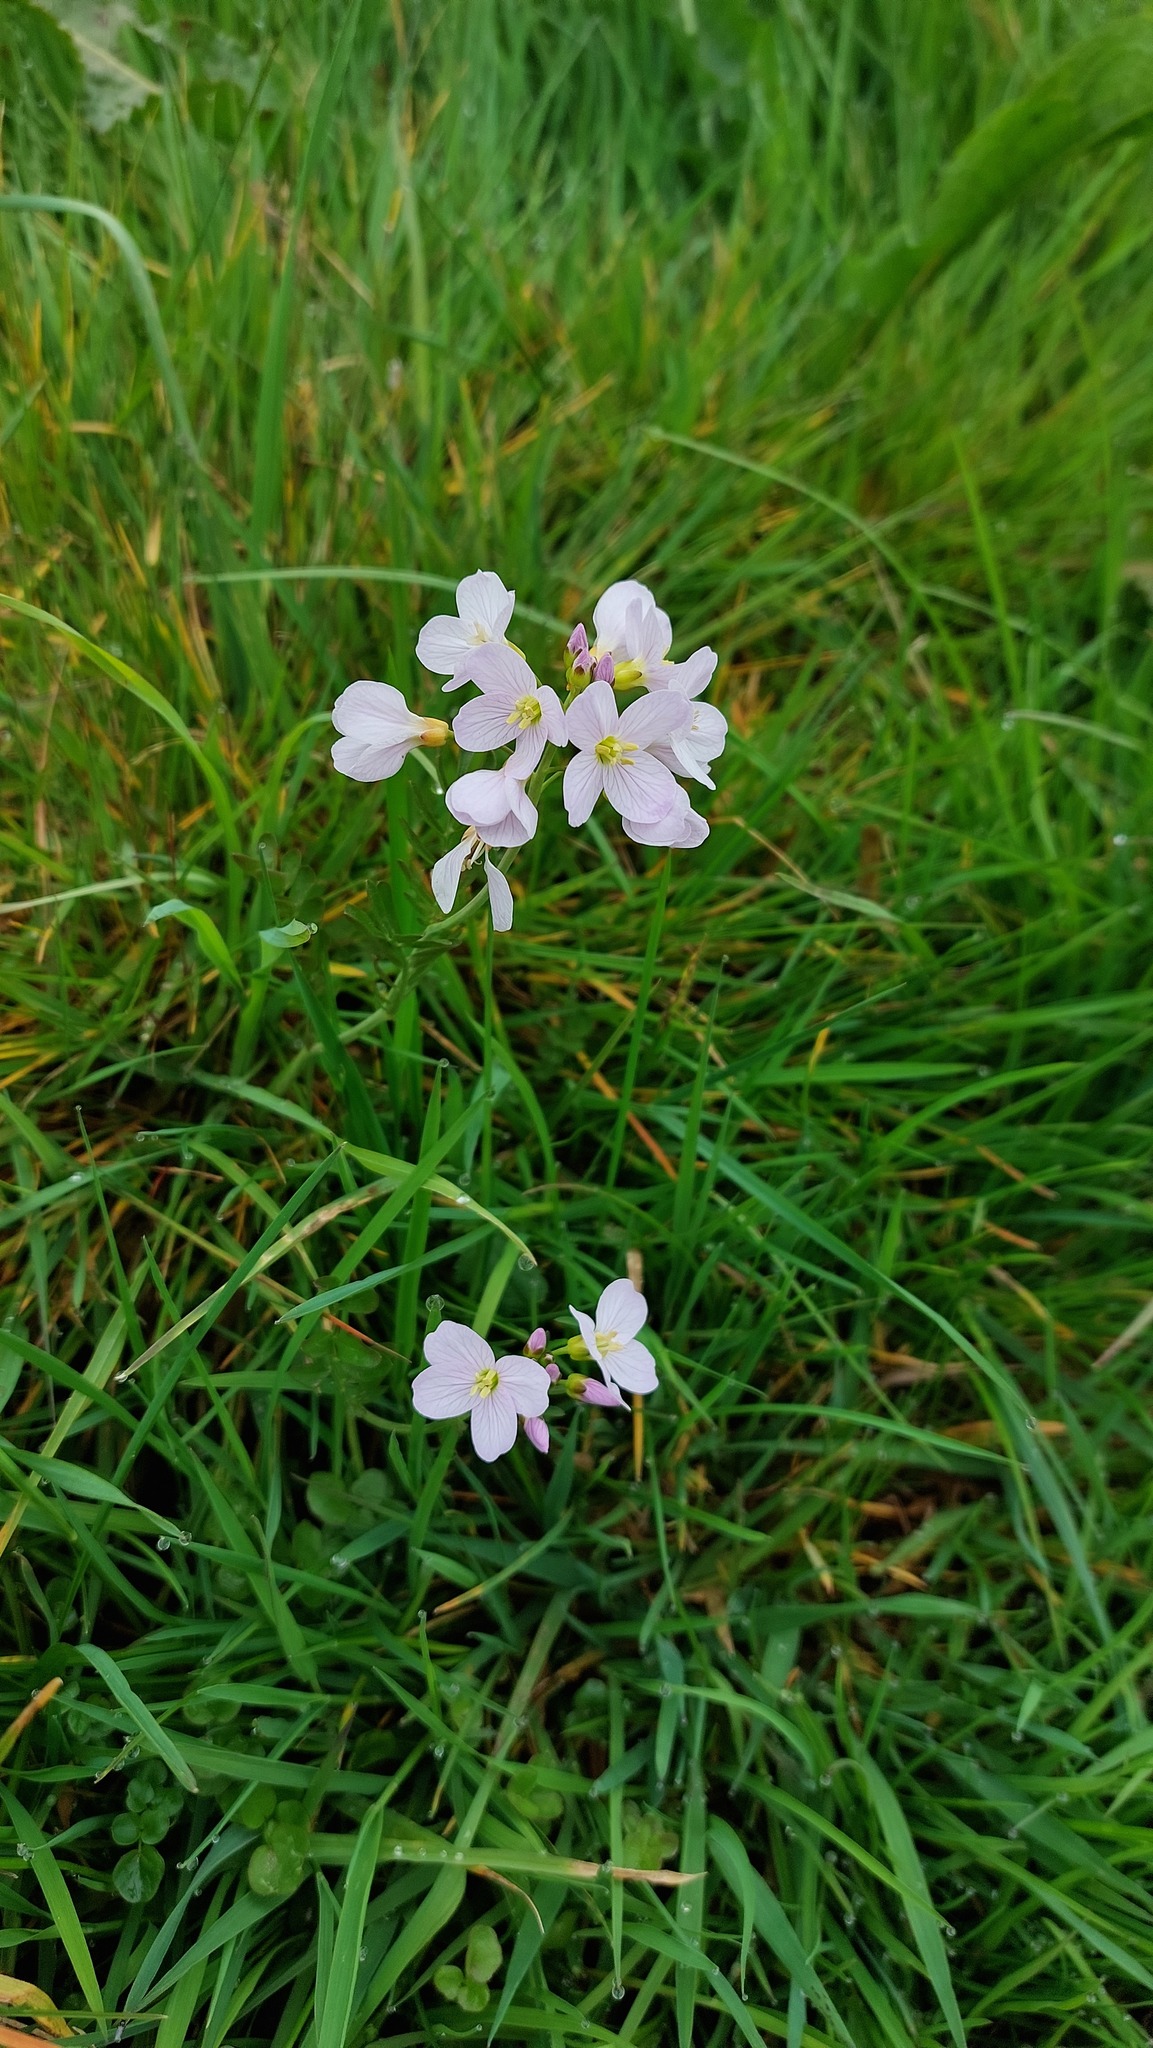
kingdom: Plantae
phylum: Tracheophyta
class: Magnoliopsida
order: Brassicales
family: Brassicaceae
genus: Cardamine
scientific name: Cardamine pratensis
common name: Cuckoo flower
